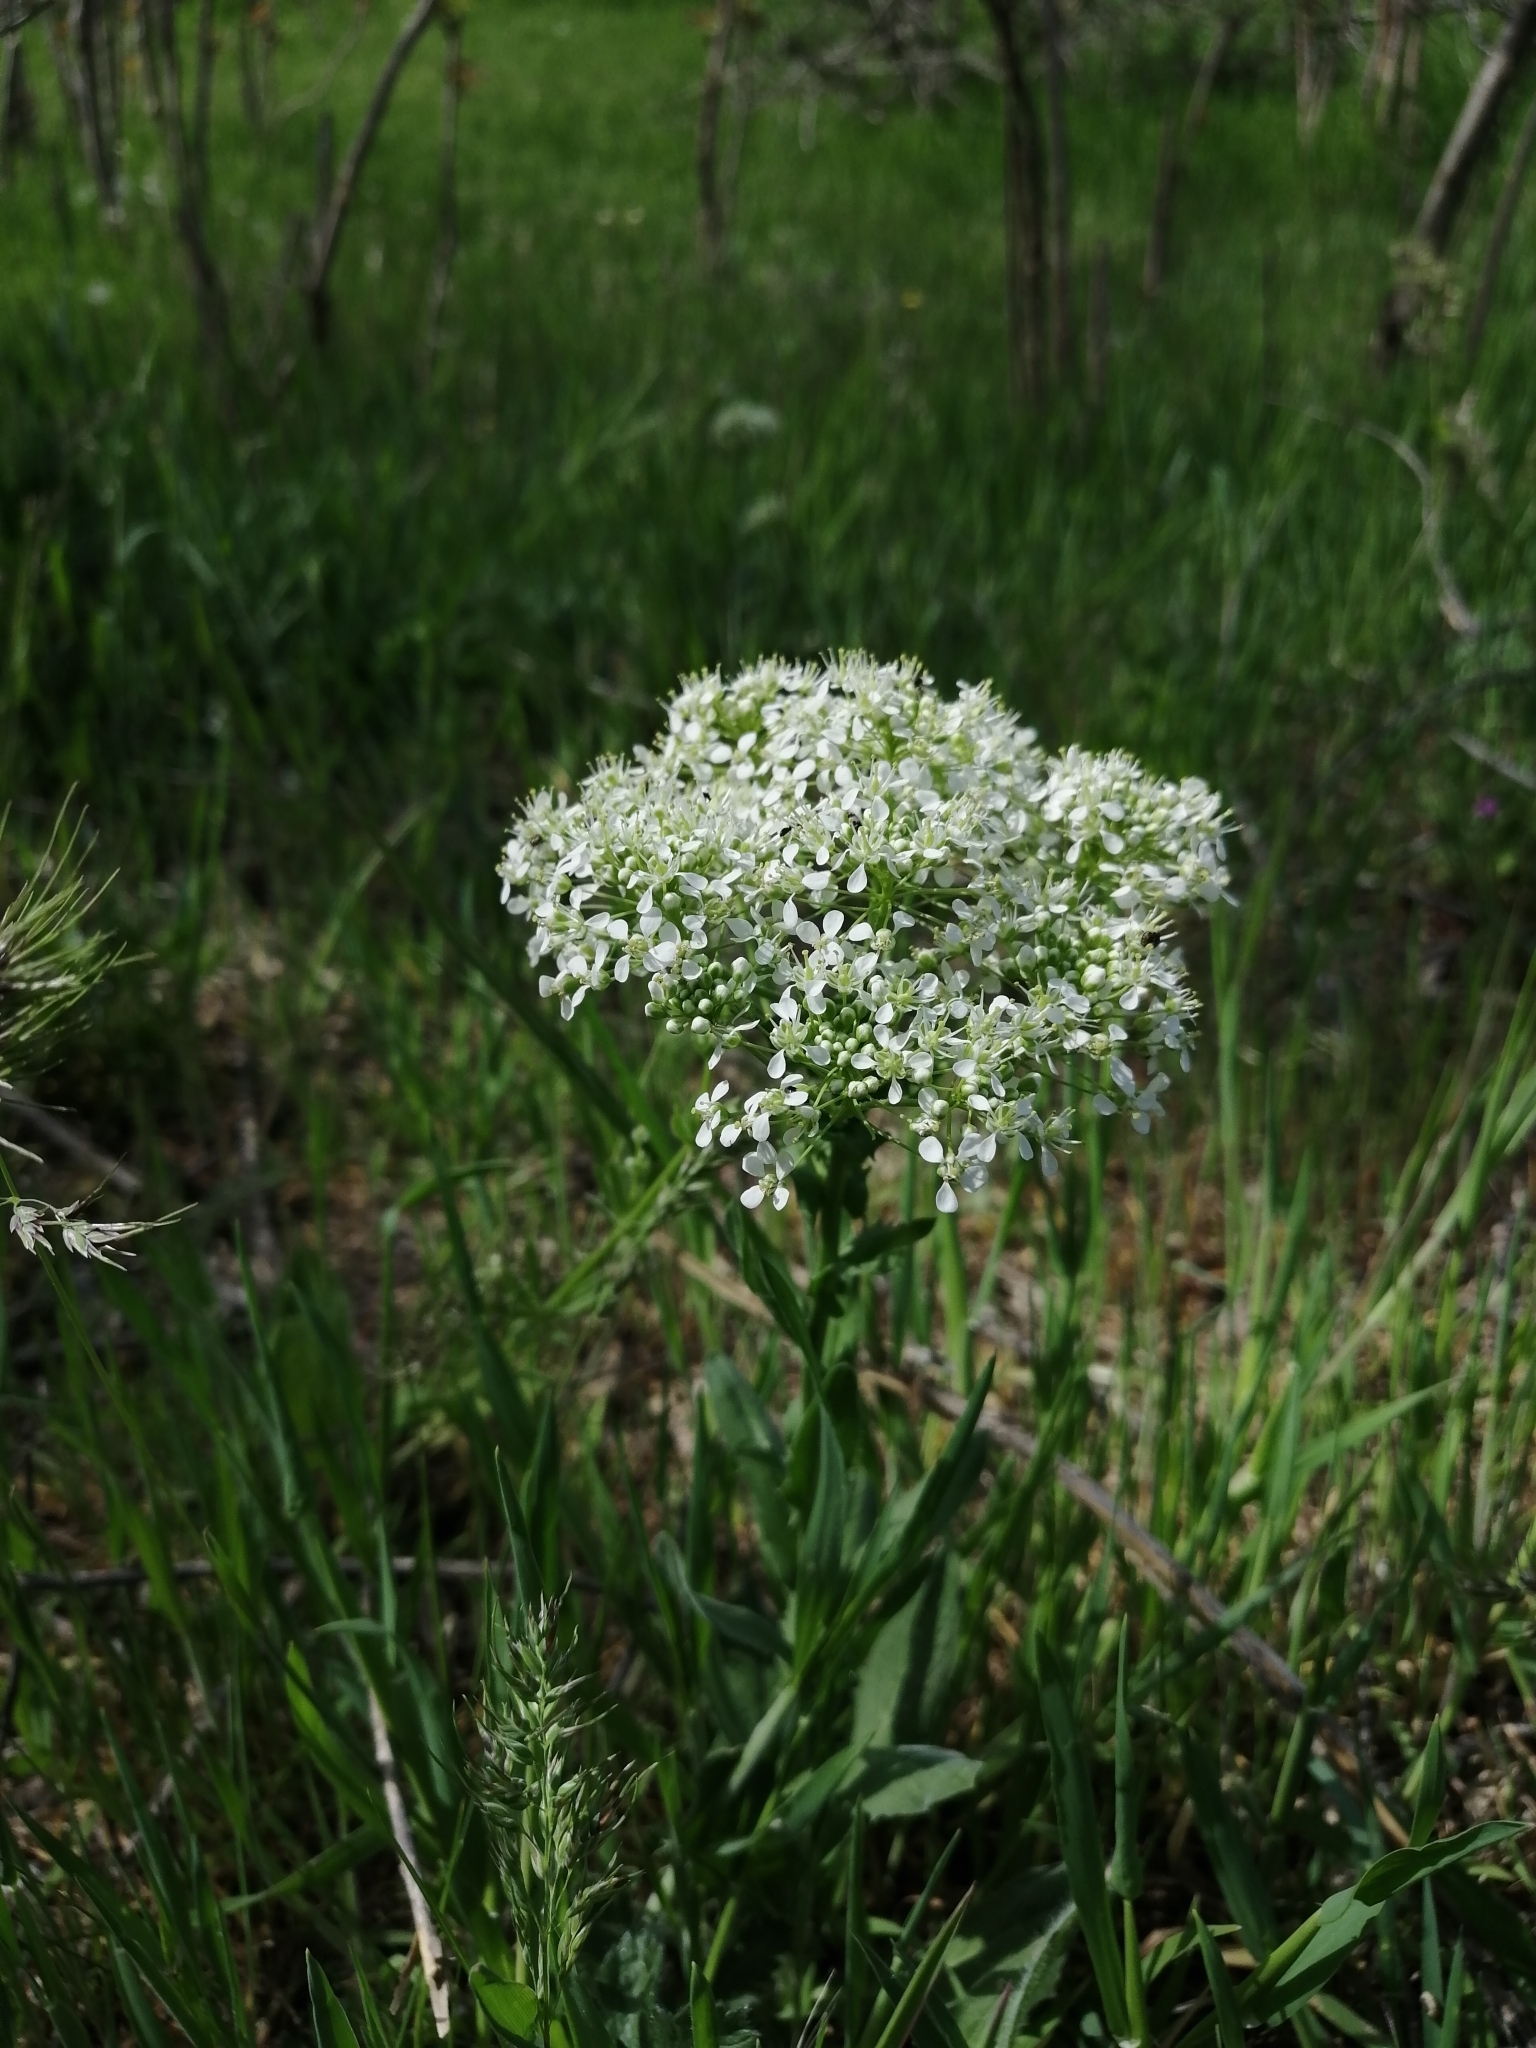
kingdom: Plantae
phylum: Tracheophyta
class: Magnoliopsida
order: Brassicales
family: Brassicaceae
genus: Lepidium
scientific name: Lepidium draba
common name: Hoary cress
